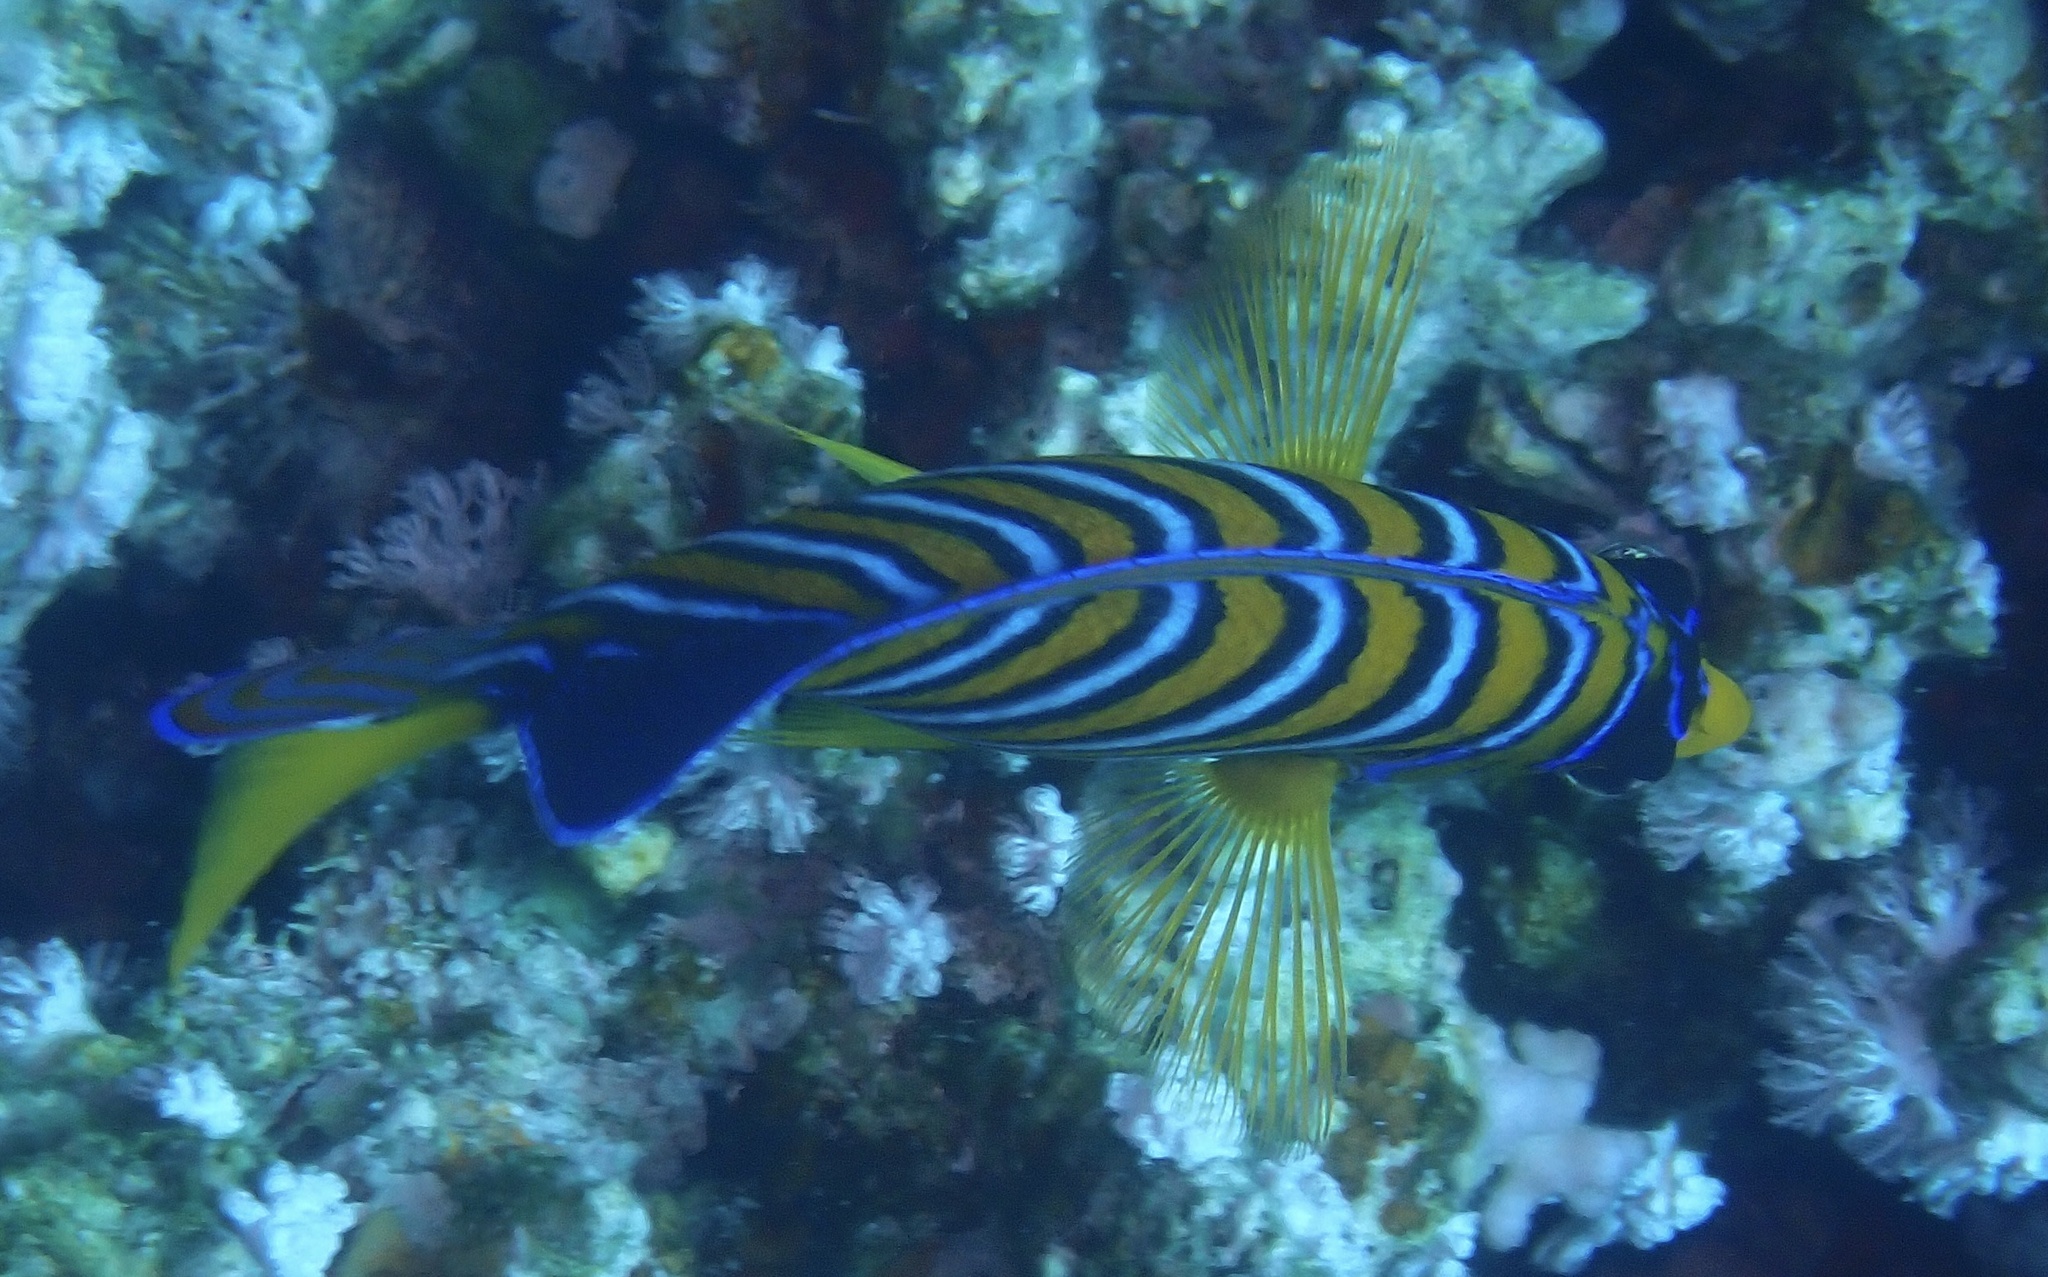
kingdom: Animalia
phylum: Chordata
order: Perciformes
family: Pomacanthidae
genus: Pygoplites
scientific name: Pygoplites diacanthus
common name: Regal angelfish
